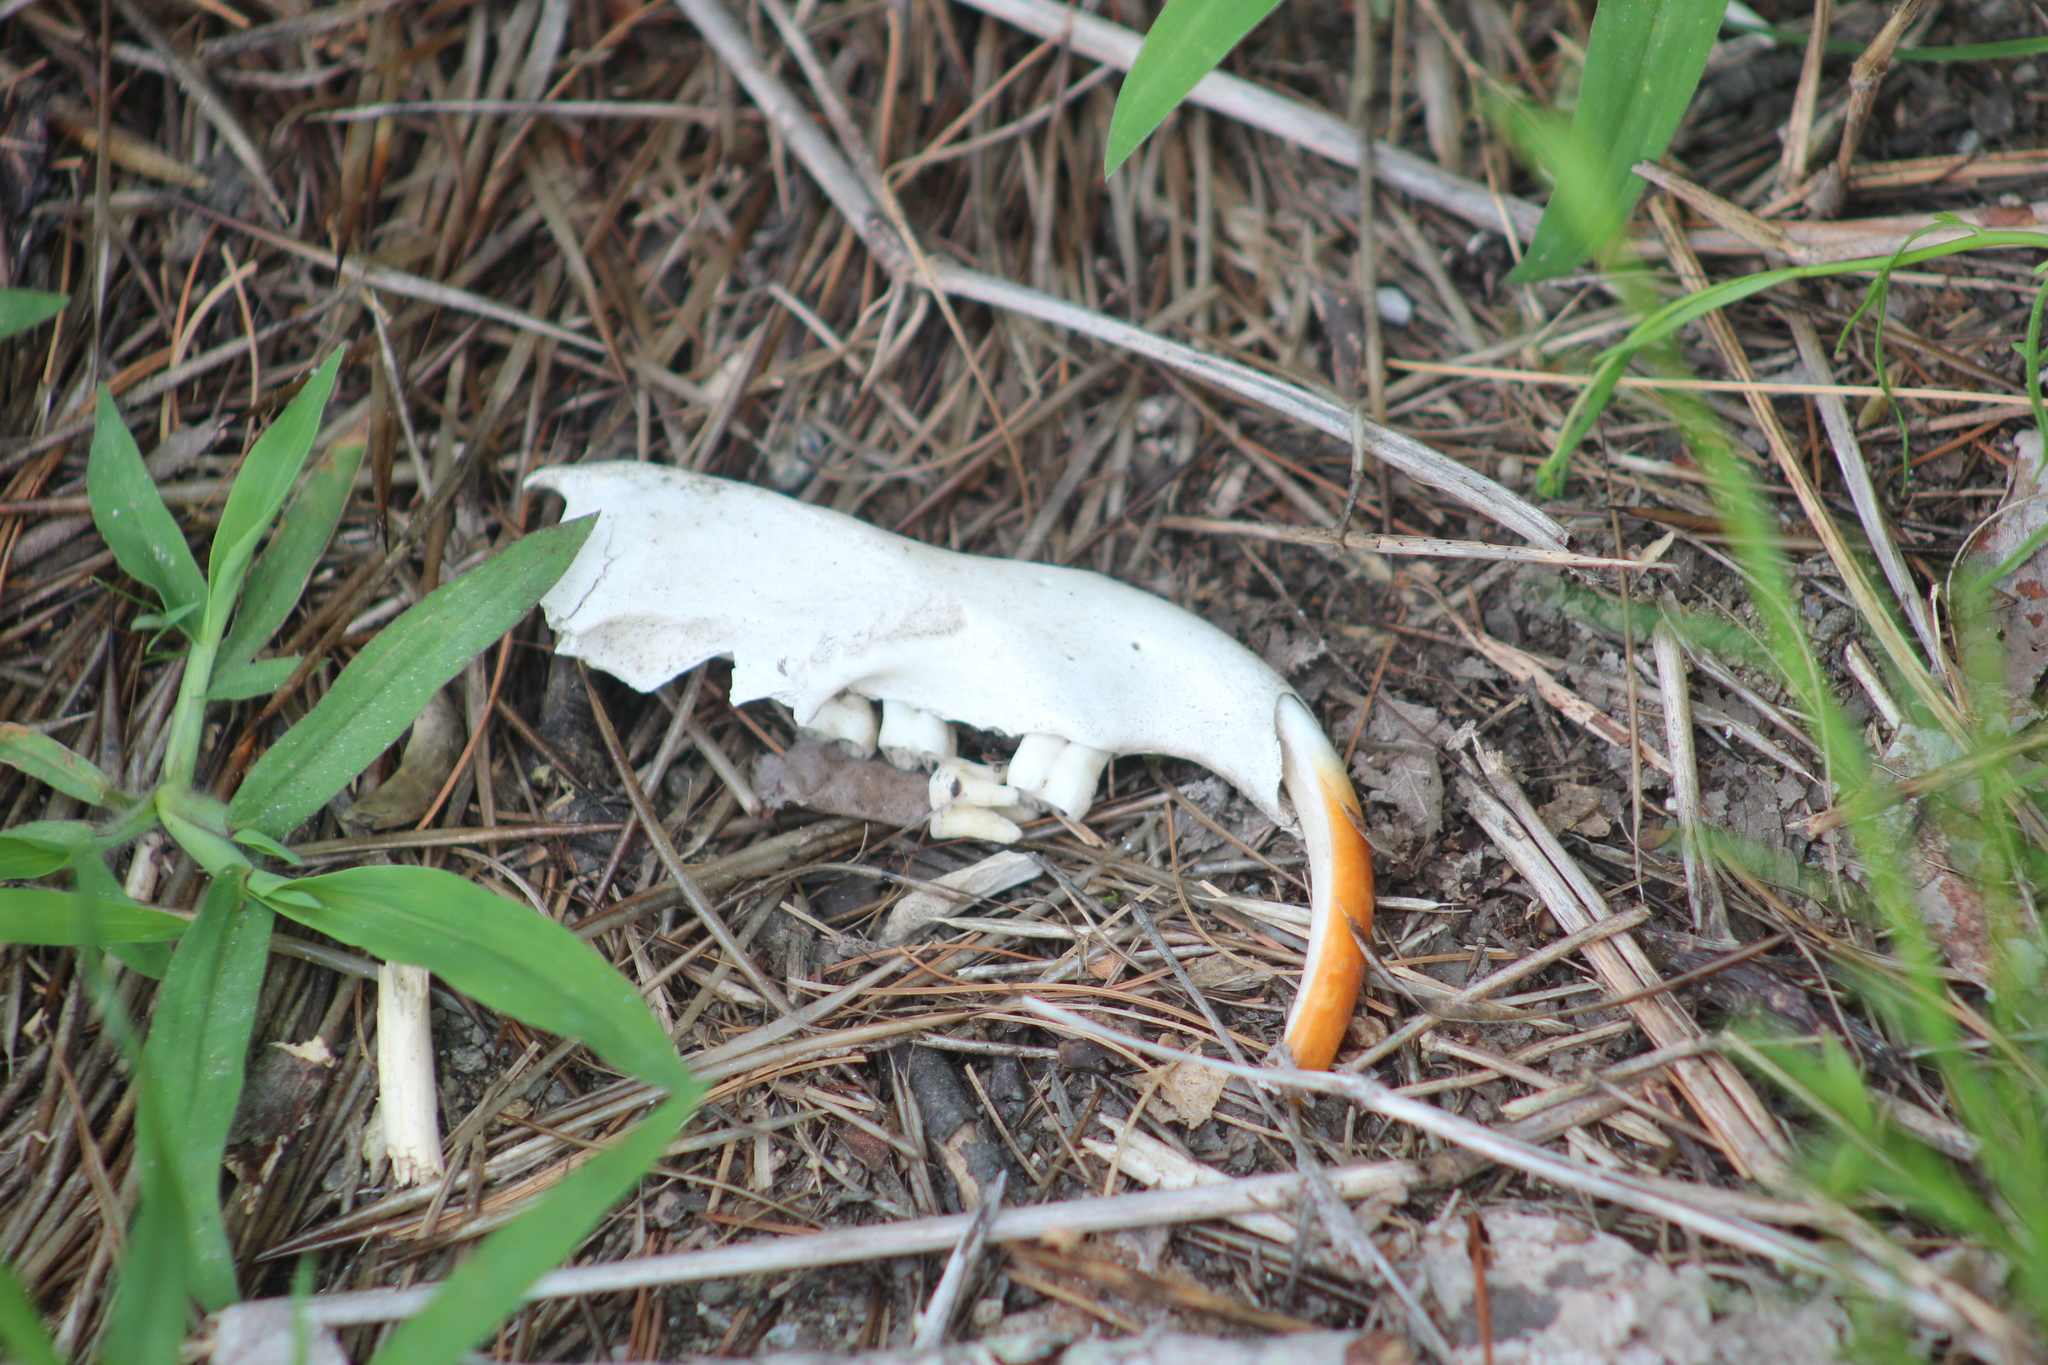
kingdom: Animalia
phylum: Chordata
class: Mammalia
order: Rodentia
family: Erethizontidae
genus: Erethizon
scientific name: Erethizon dorsatus
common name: North american porcupine
